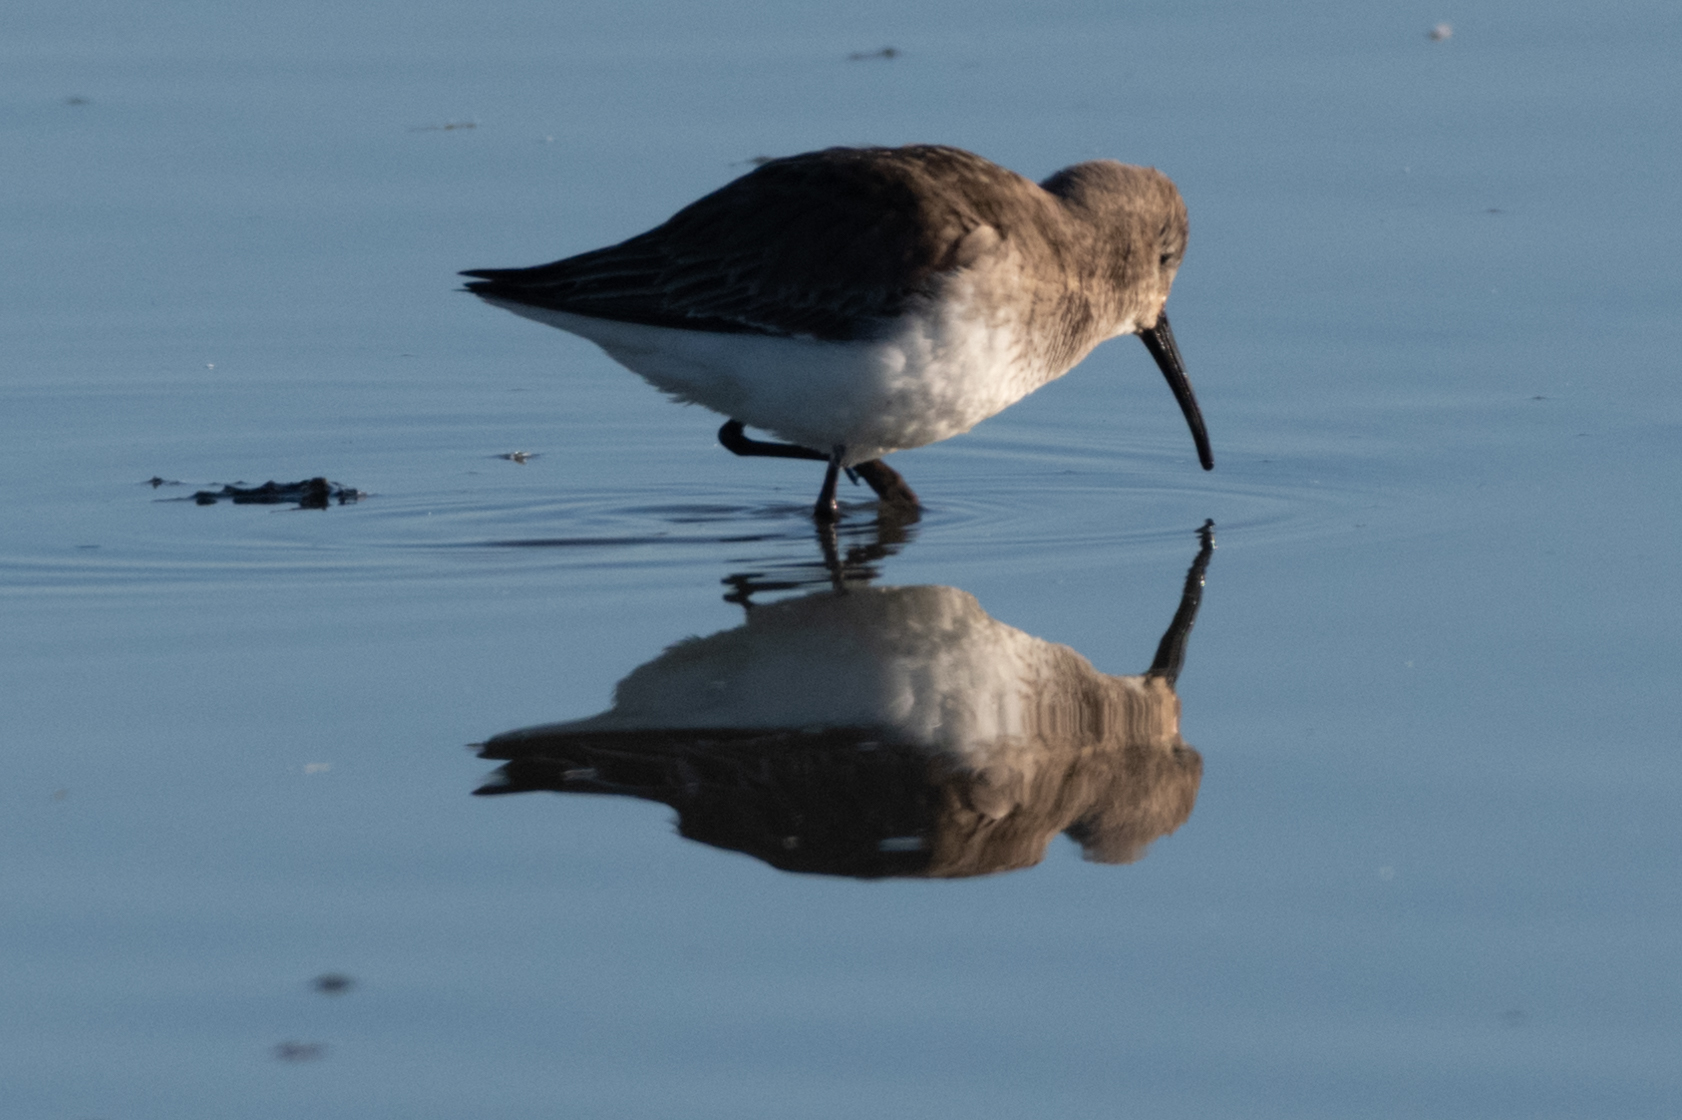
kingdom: Animalia
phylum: Chordata
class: Aves
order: Charadriiformes
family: Scolopacidae
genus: Calidris
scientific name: Calidris alpina
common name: Dunlin
